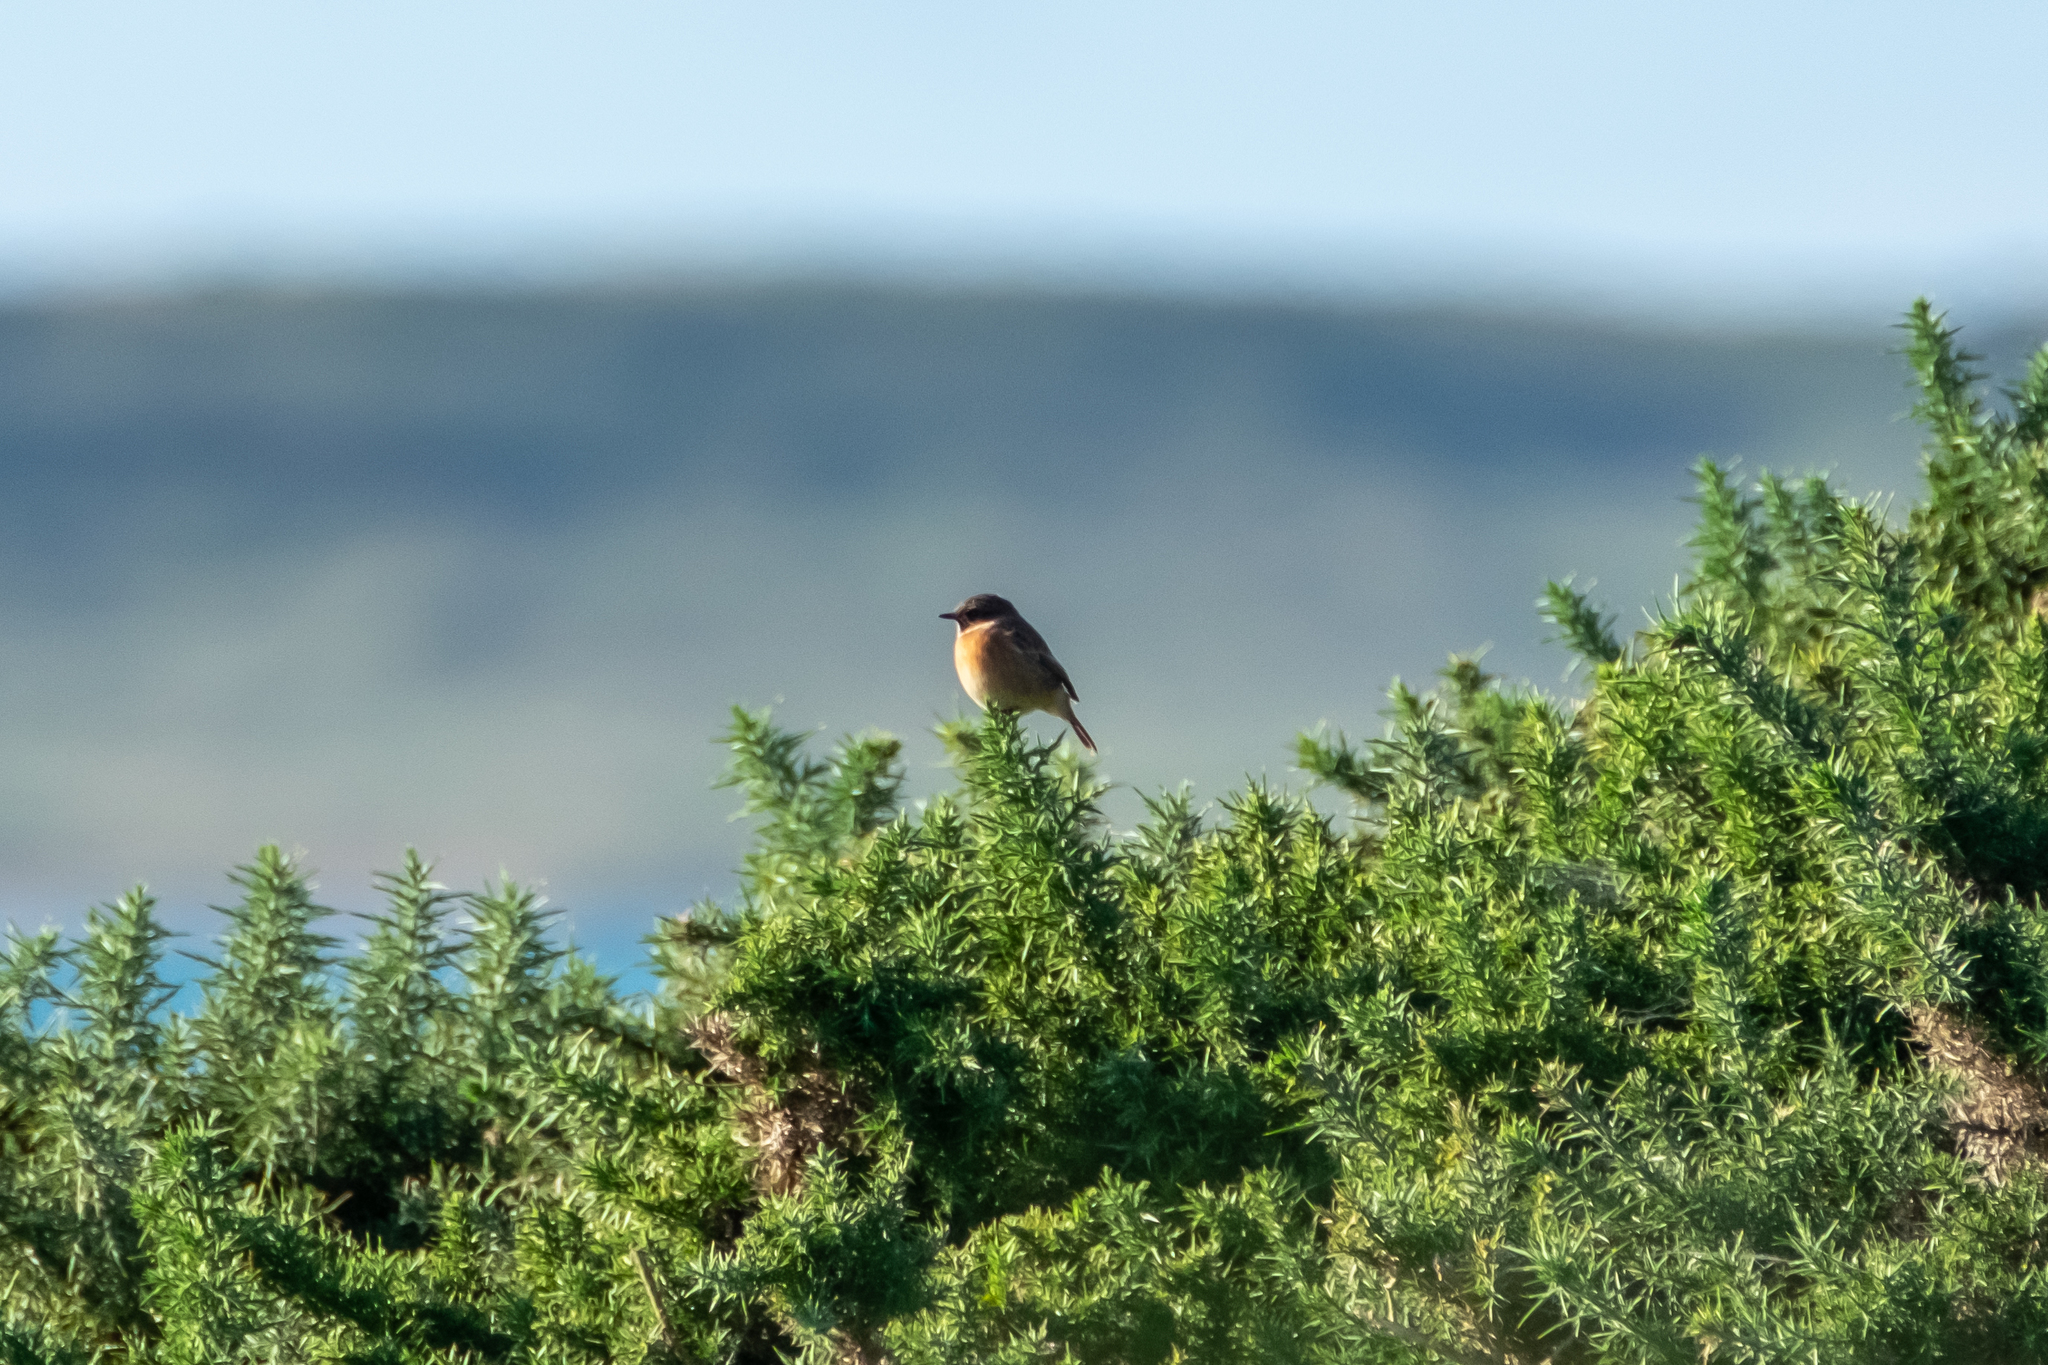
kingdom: Animalia
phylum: Chordata
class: Aves
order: Passeriformes
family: Muscicapidae
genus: Saxicola
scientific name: Saxicola rubicola
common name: European stonechat
